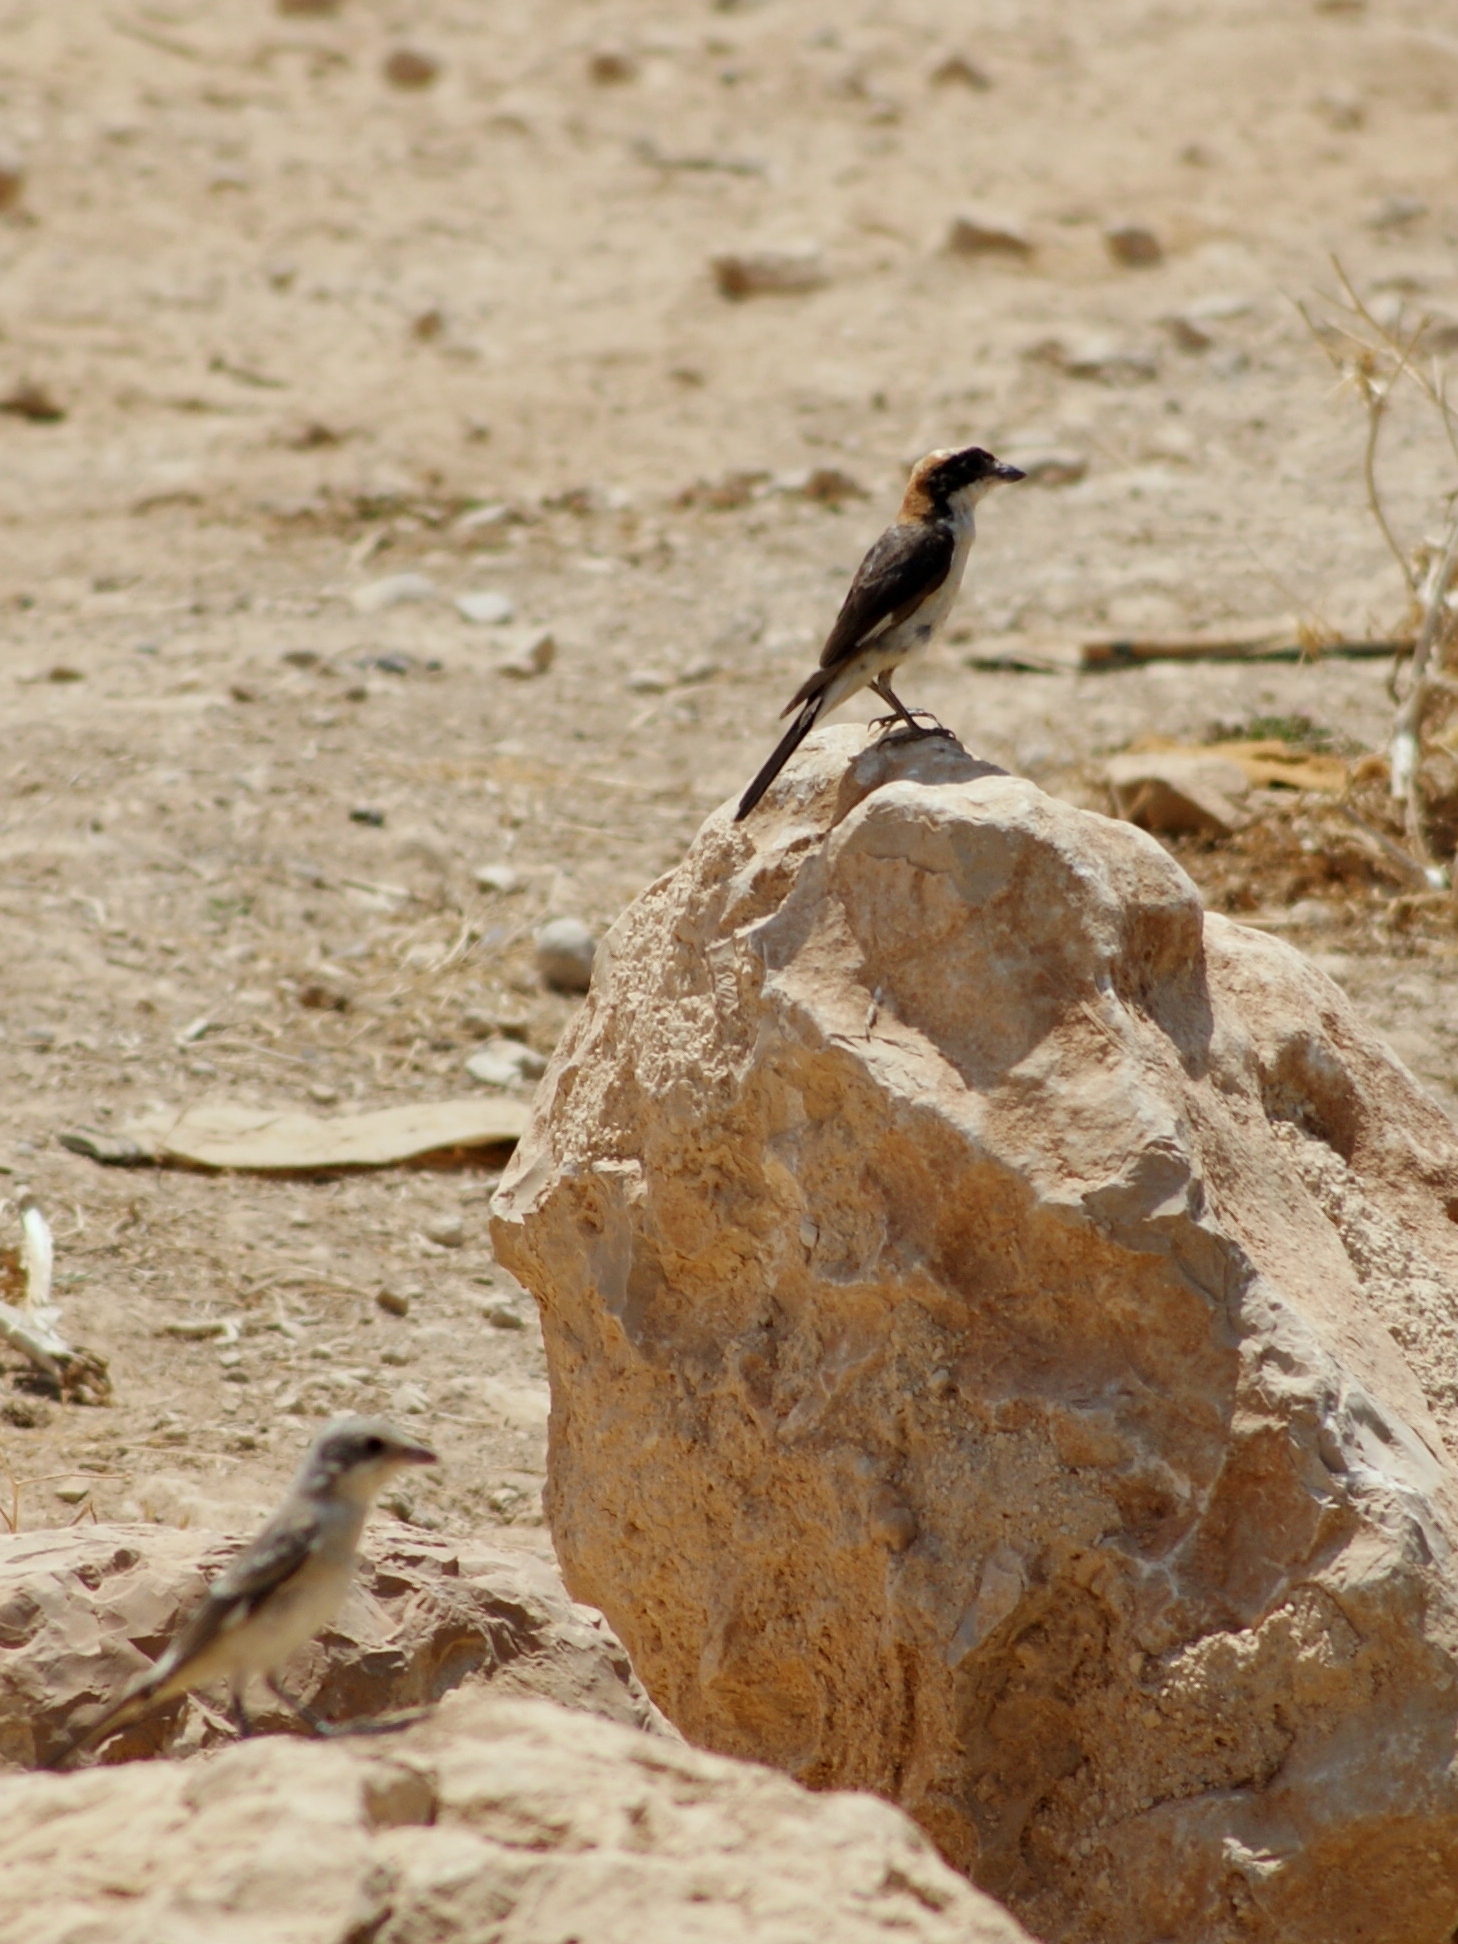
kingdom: Animalia
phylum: Chordata
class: Aves
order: Passeriformes
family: Laniidae
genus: Lanius
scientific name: Lanius senator
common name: Woodchat shrike
